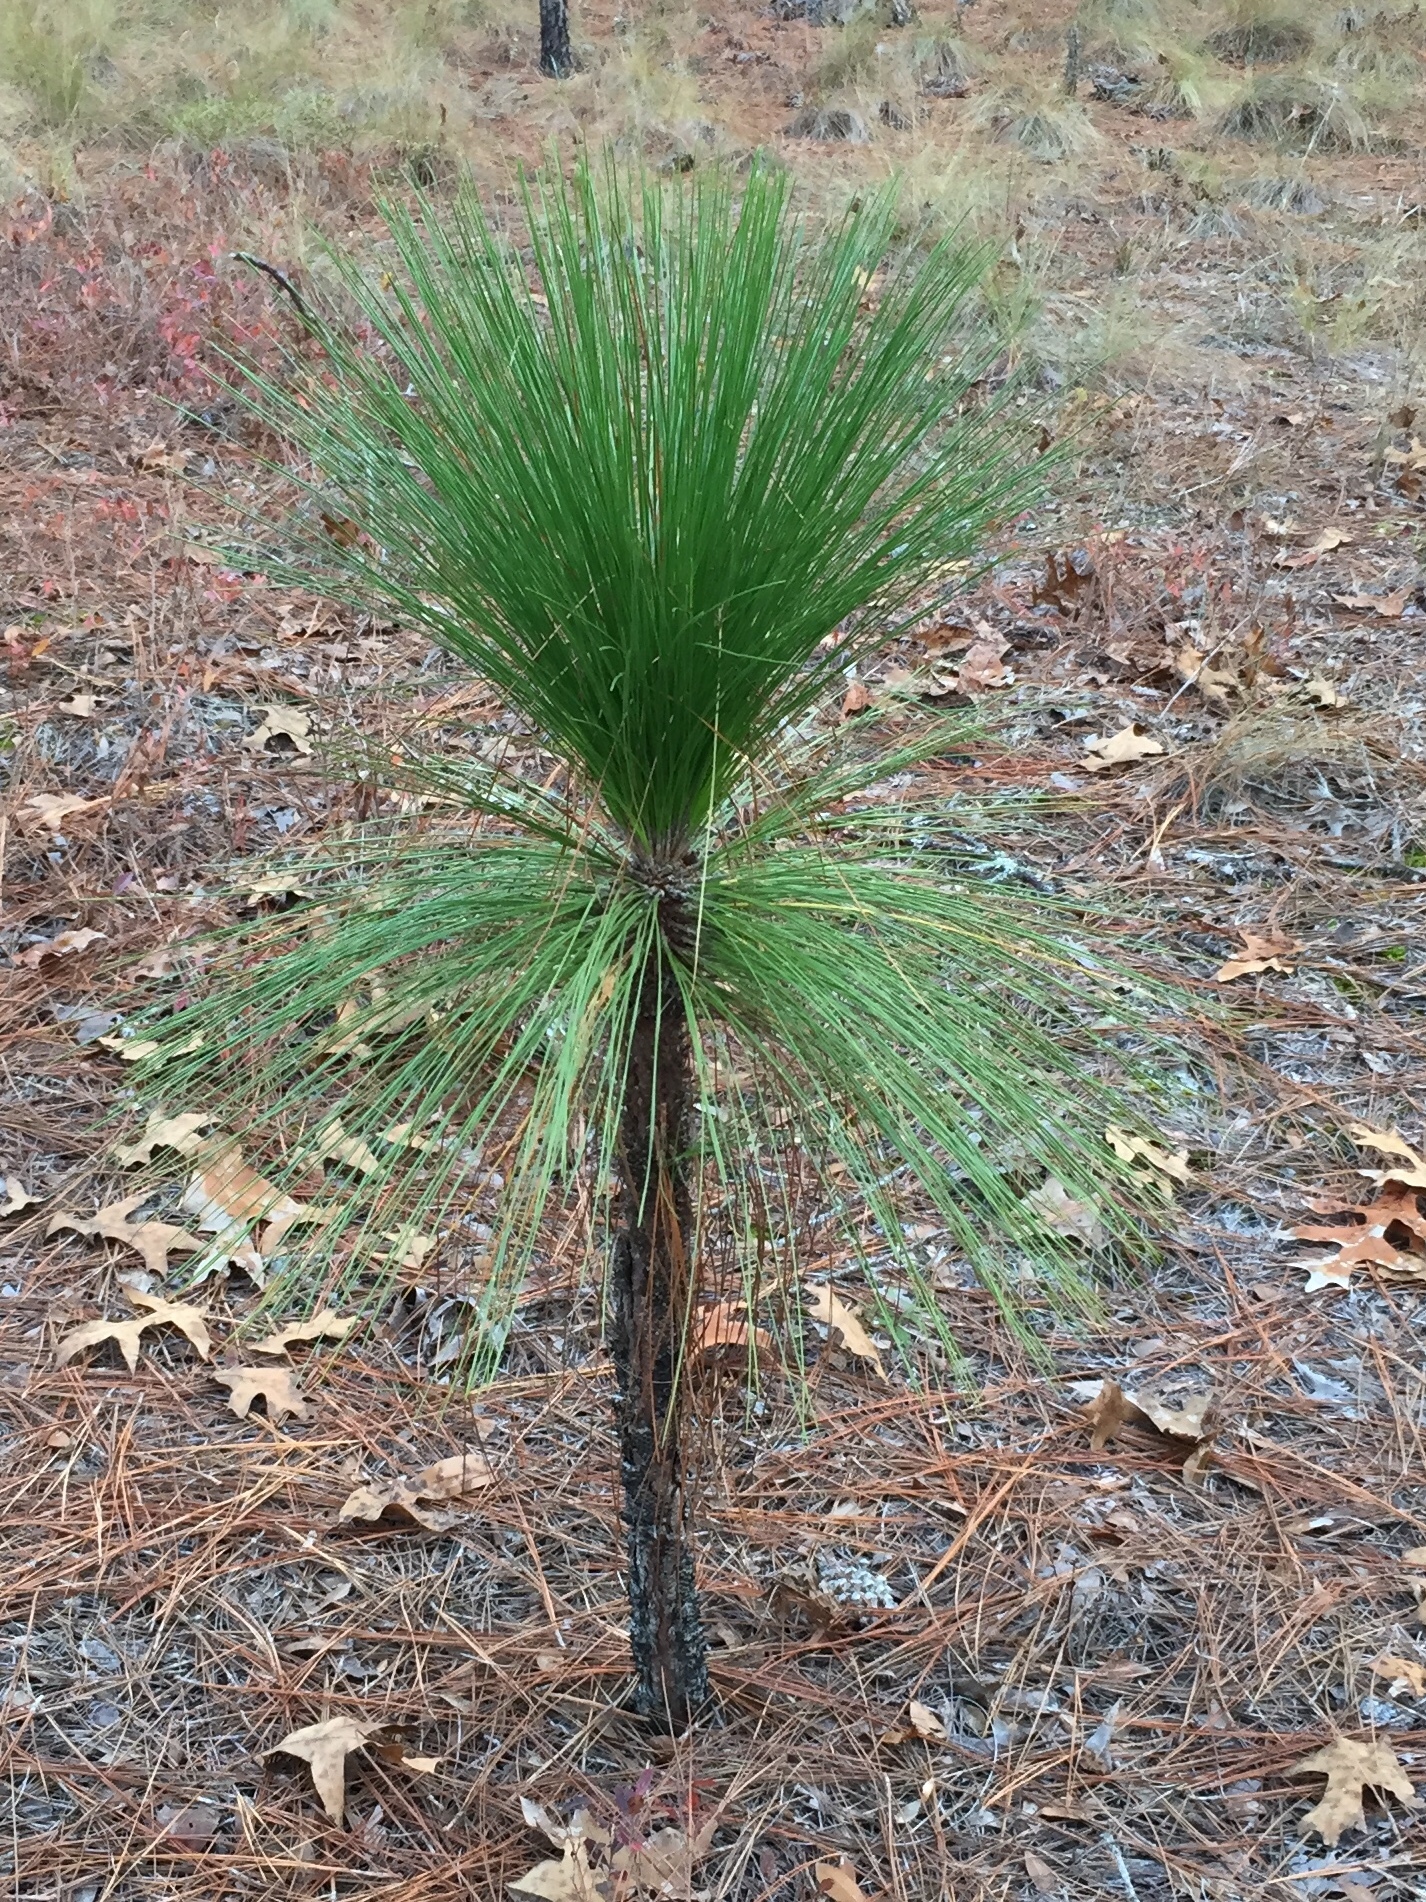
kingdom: Plantae
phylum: Tracheophyta
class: Pinopsida
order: Pinales
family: Pinaceae
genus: Pinus
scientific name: Pinus palustris
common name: Longleaf pine
